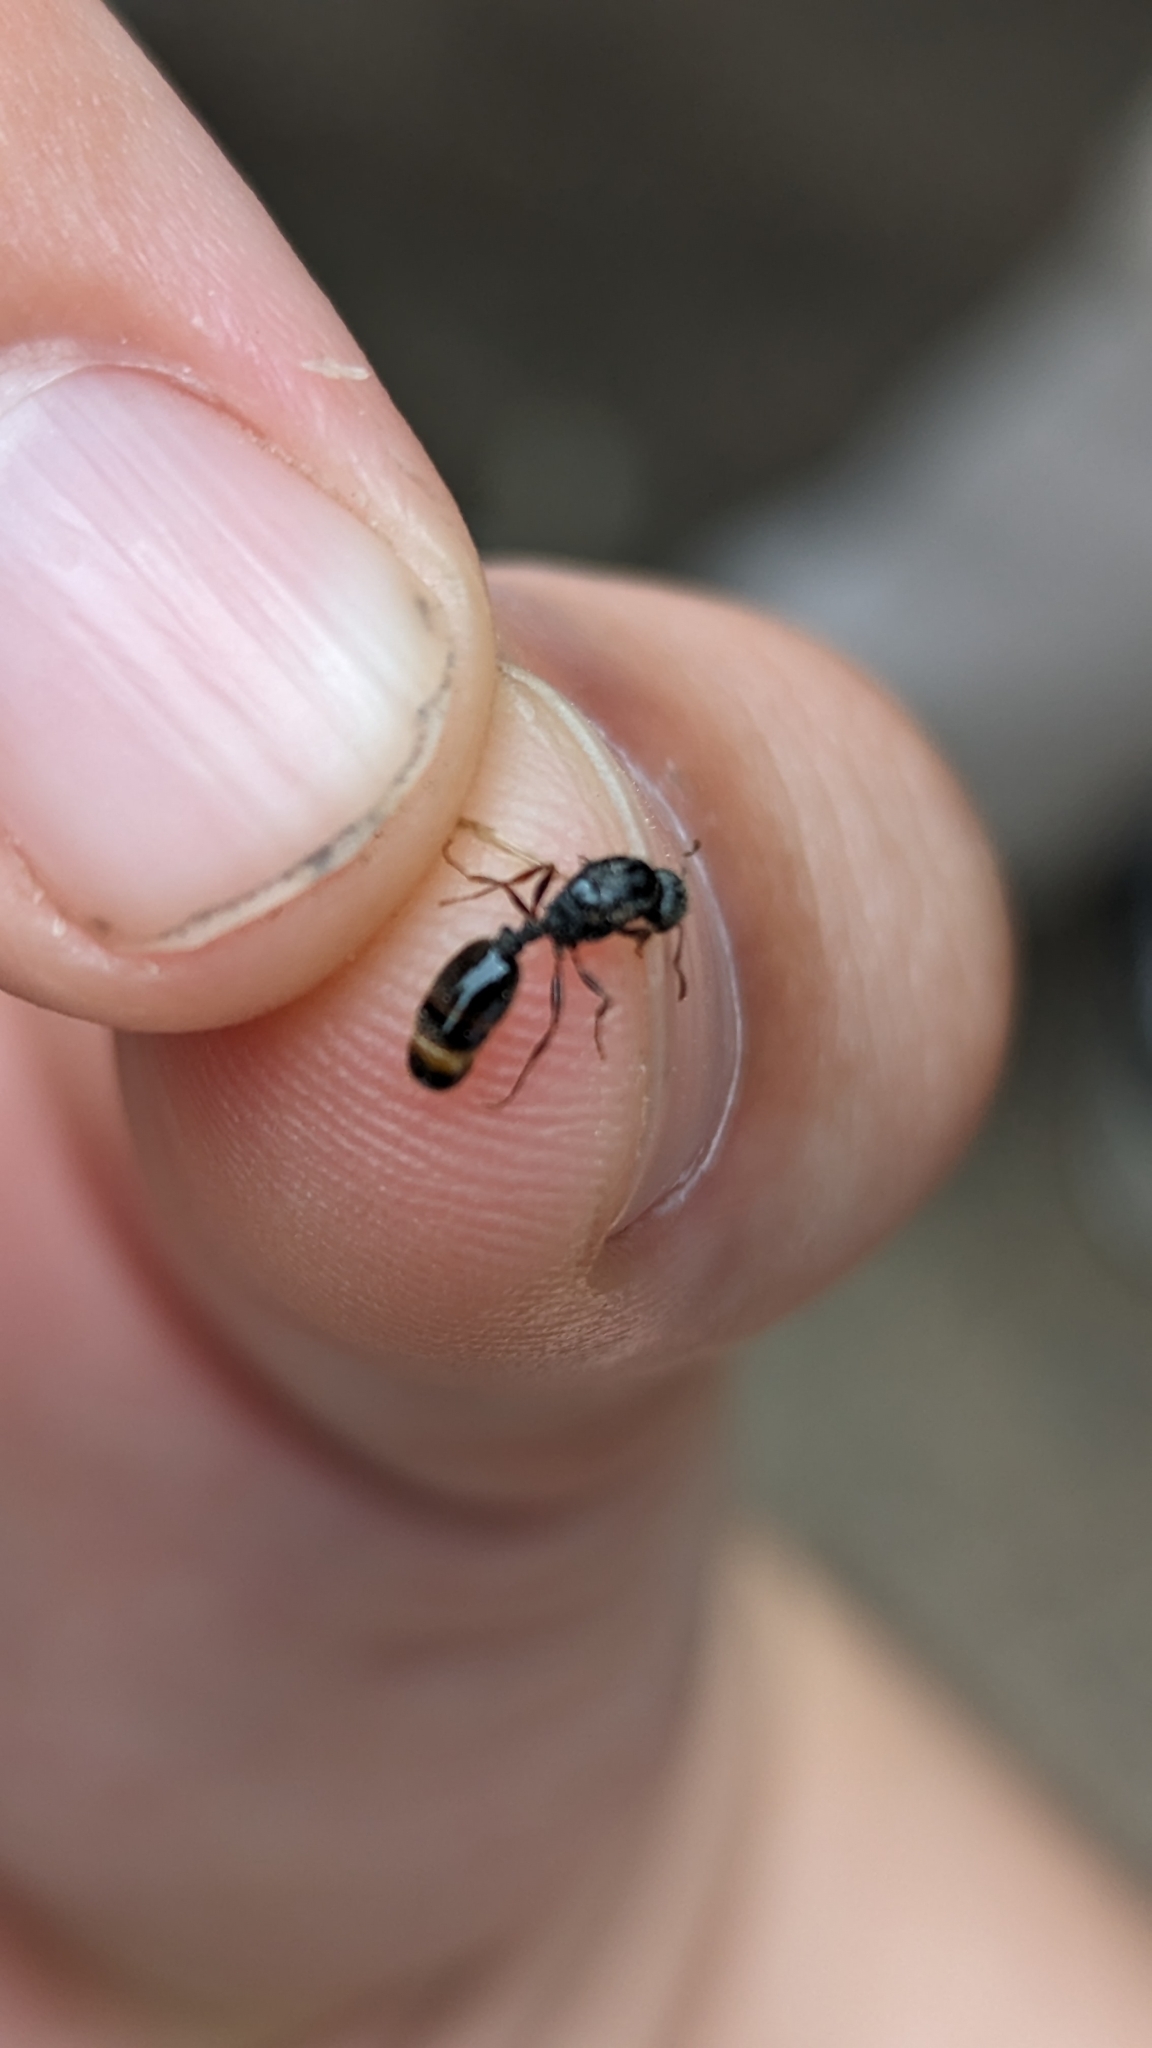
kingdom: Animalia
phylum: Arthropoda
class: Insecta
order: Hymenoptera
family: Formicidae
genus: Tetramorium
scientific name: Tetramorium immigrans
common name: Pavement ant
